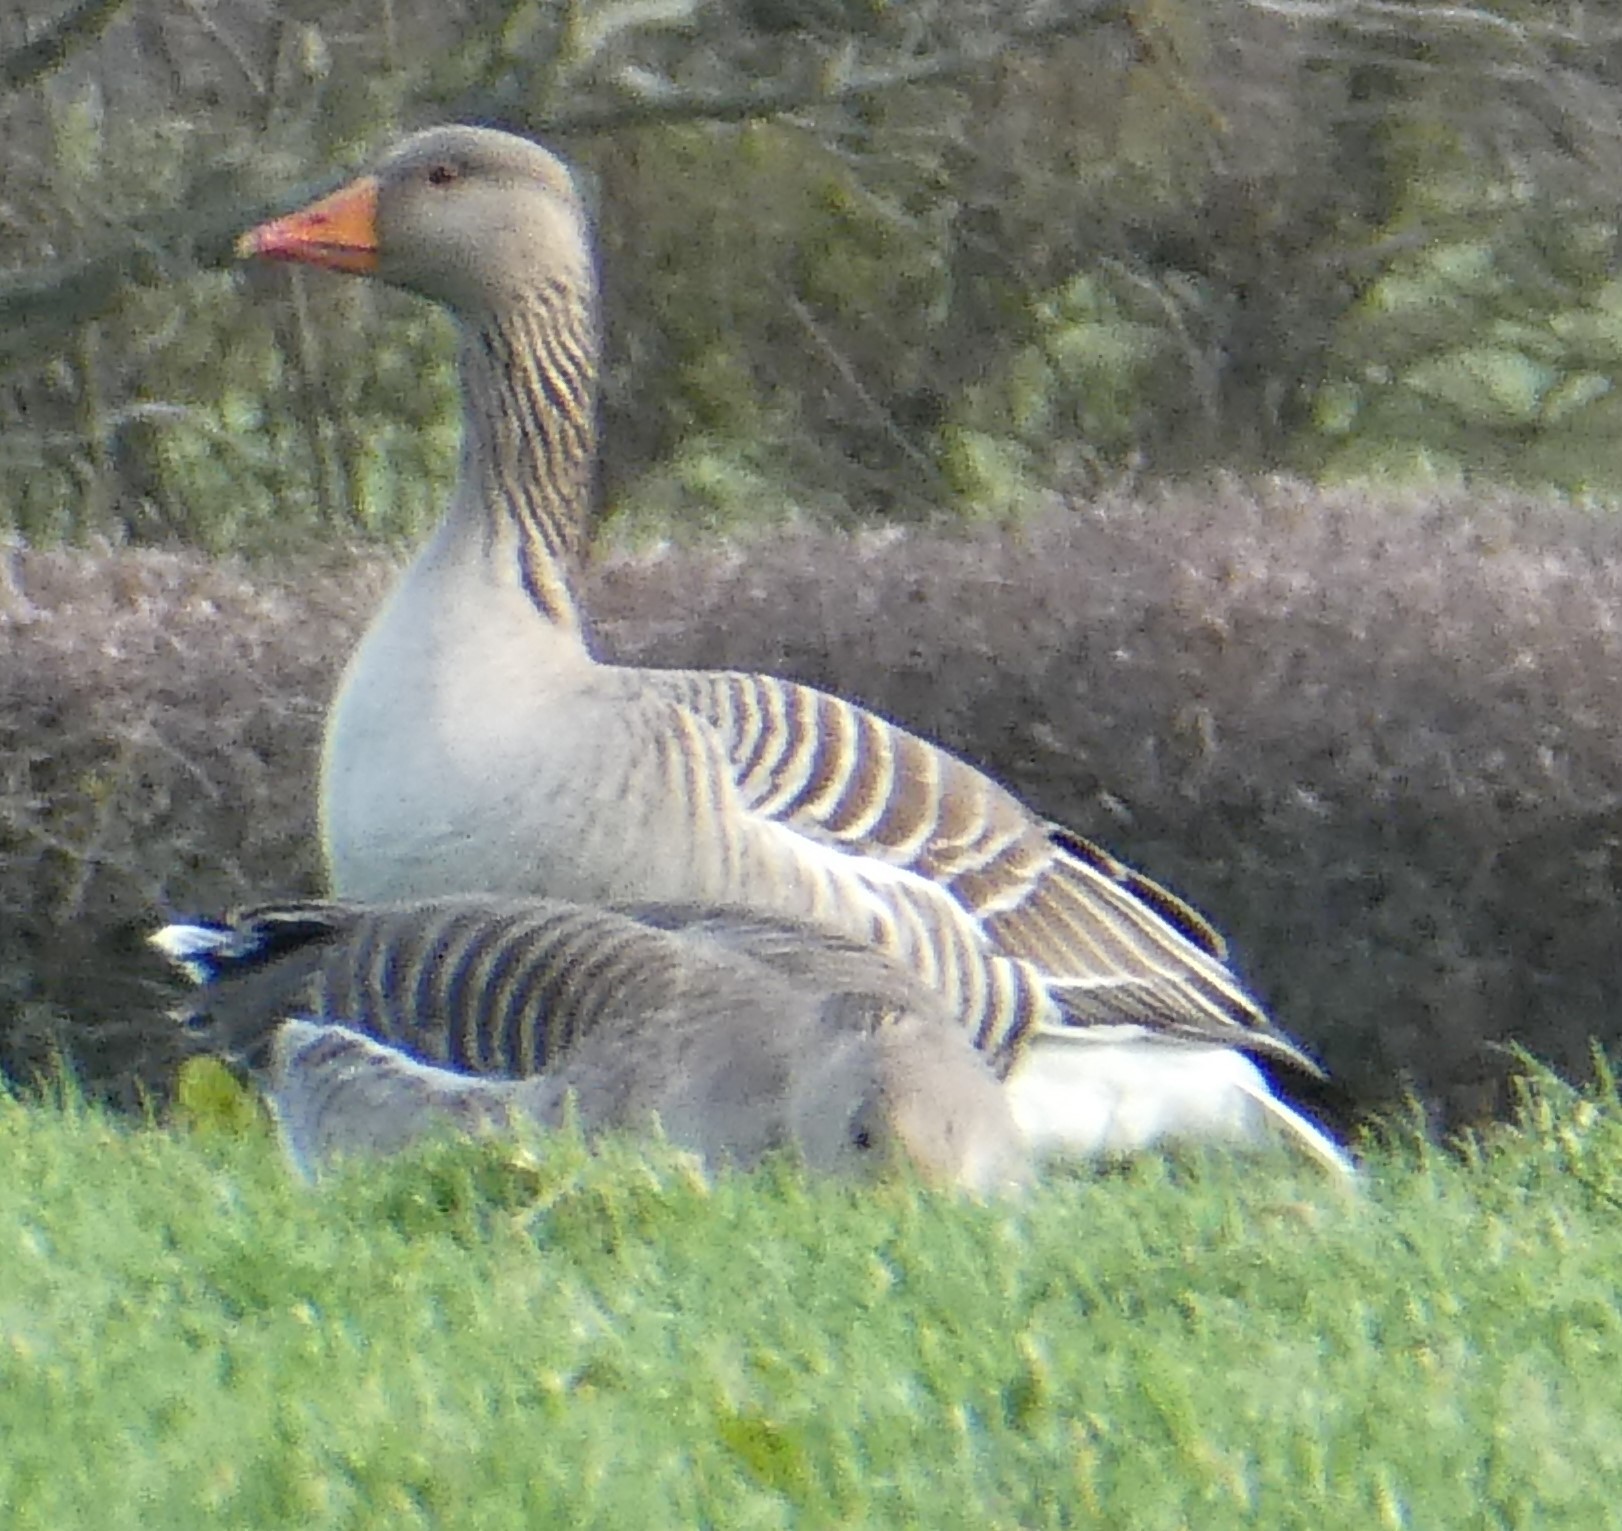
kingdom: Animalia
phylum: Chordata
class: Aves
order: Anseriformes
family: Anatidae
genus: Anser
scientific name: Anser anser
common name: Greylag goose
